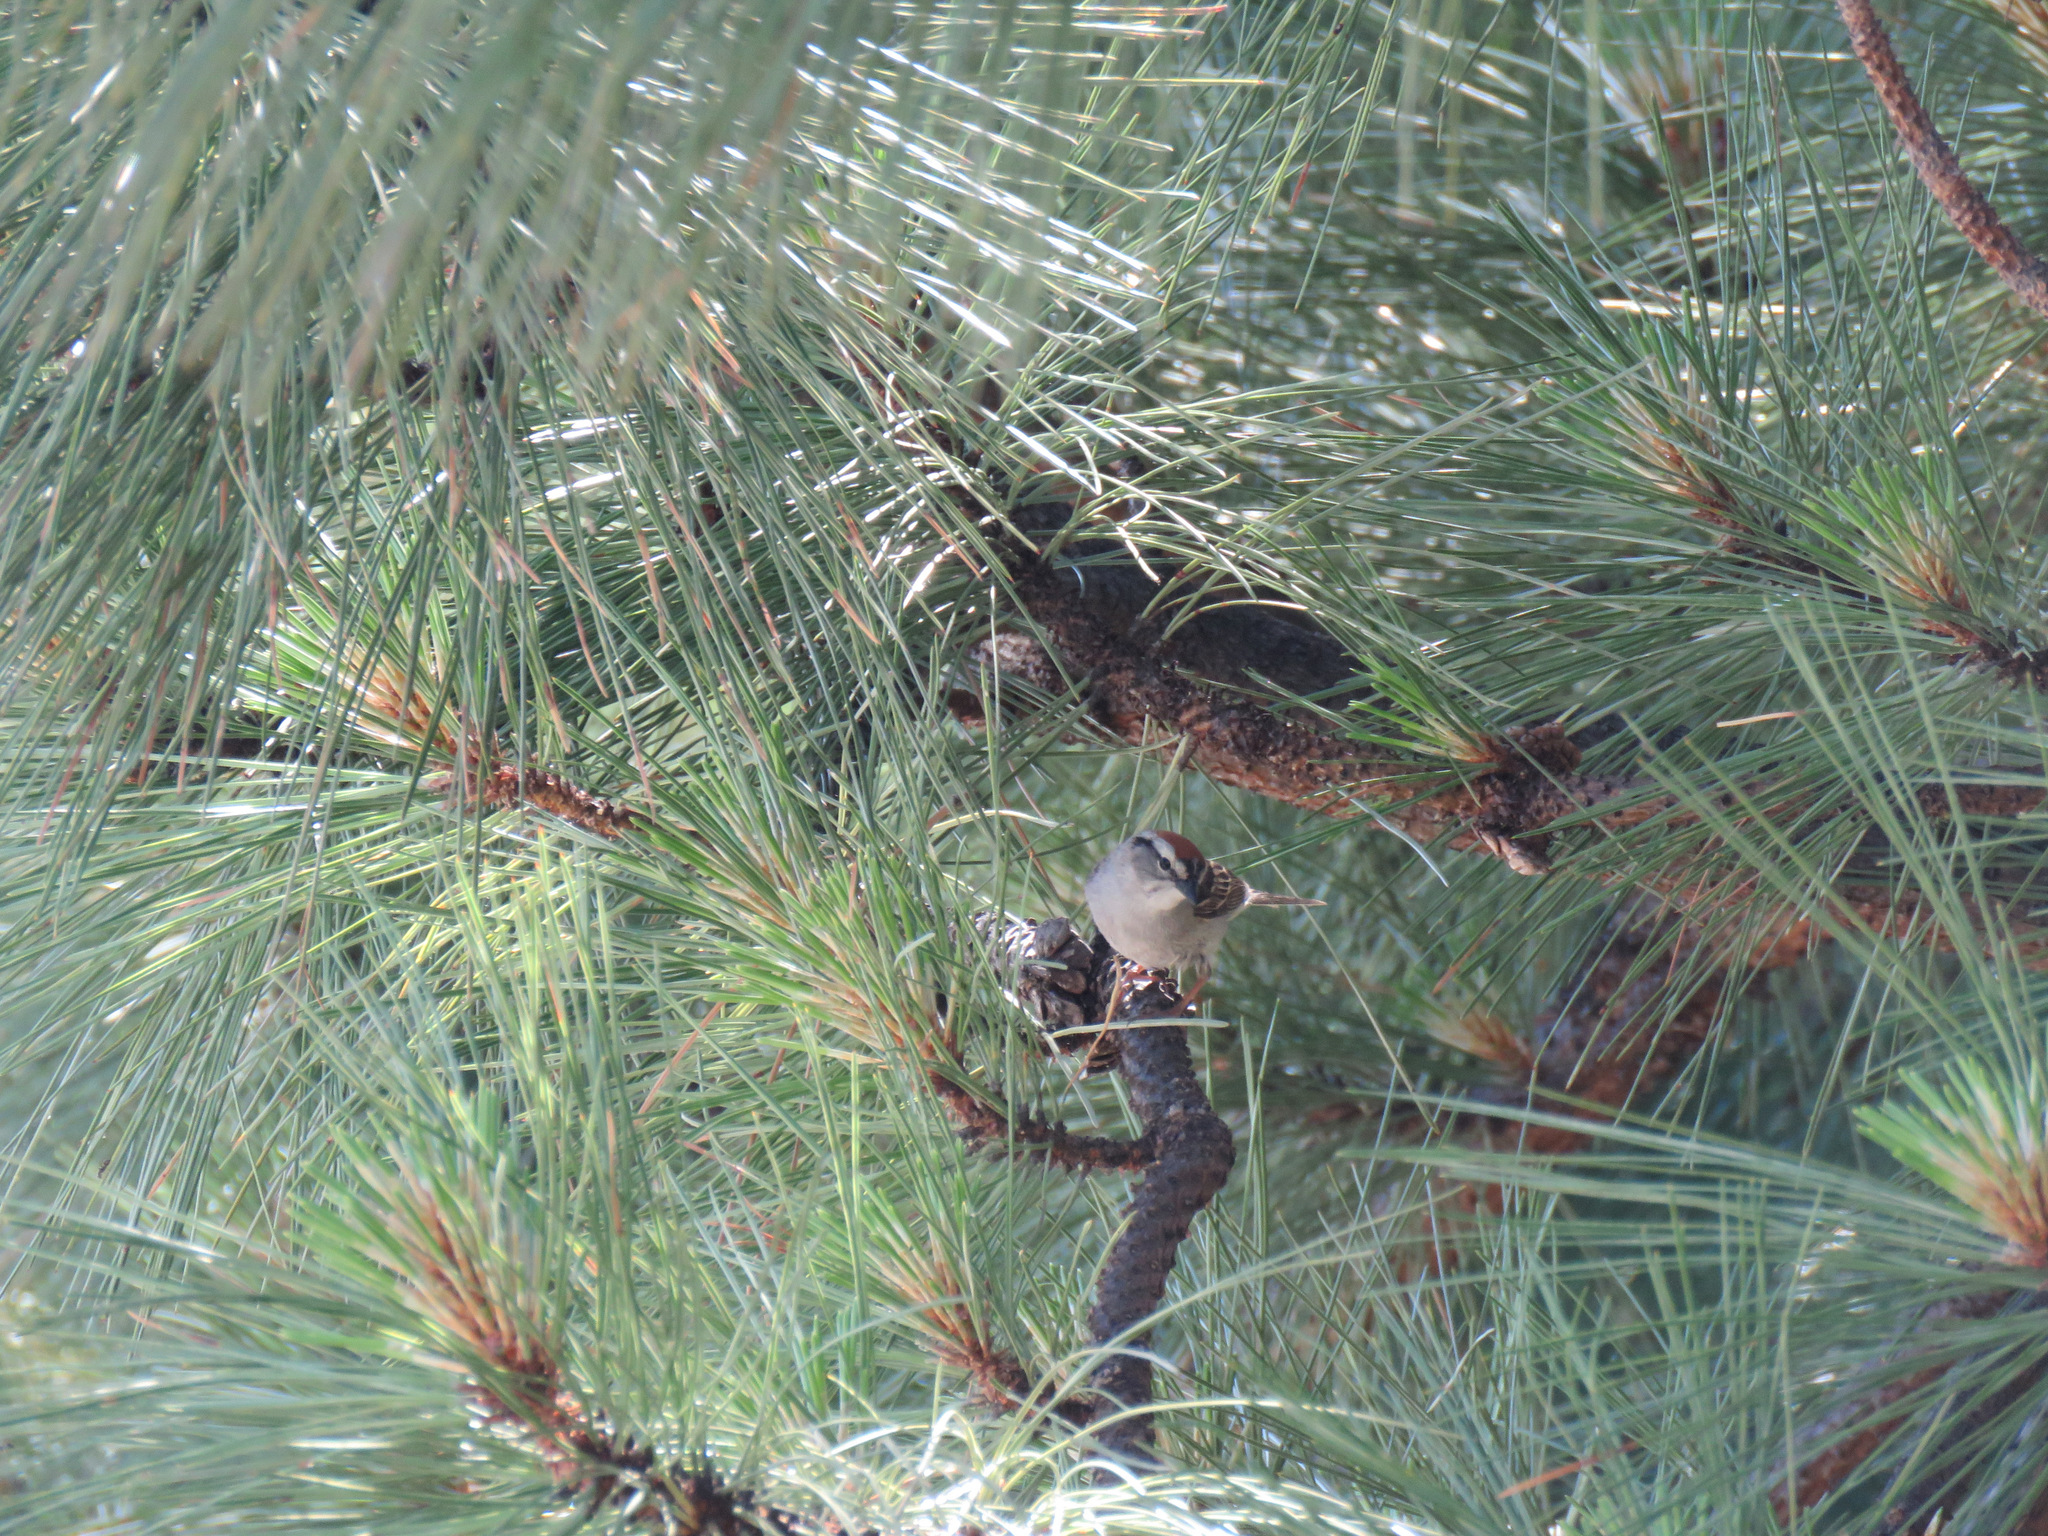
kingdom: Animalia
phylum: Chordata
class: Aves
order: Passeriformes
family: Passerellidae
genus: Spizella
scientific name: Spizella passerina
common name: Chipping sparrow
